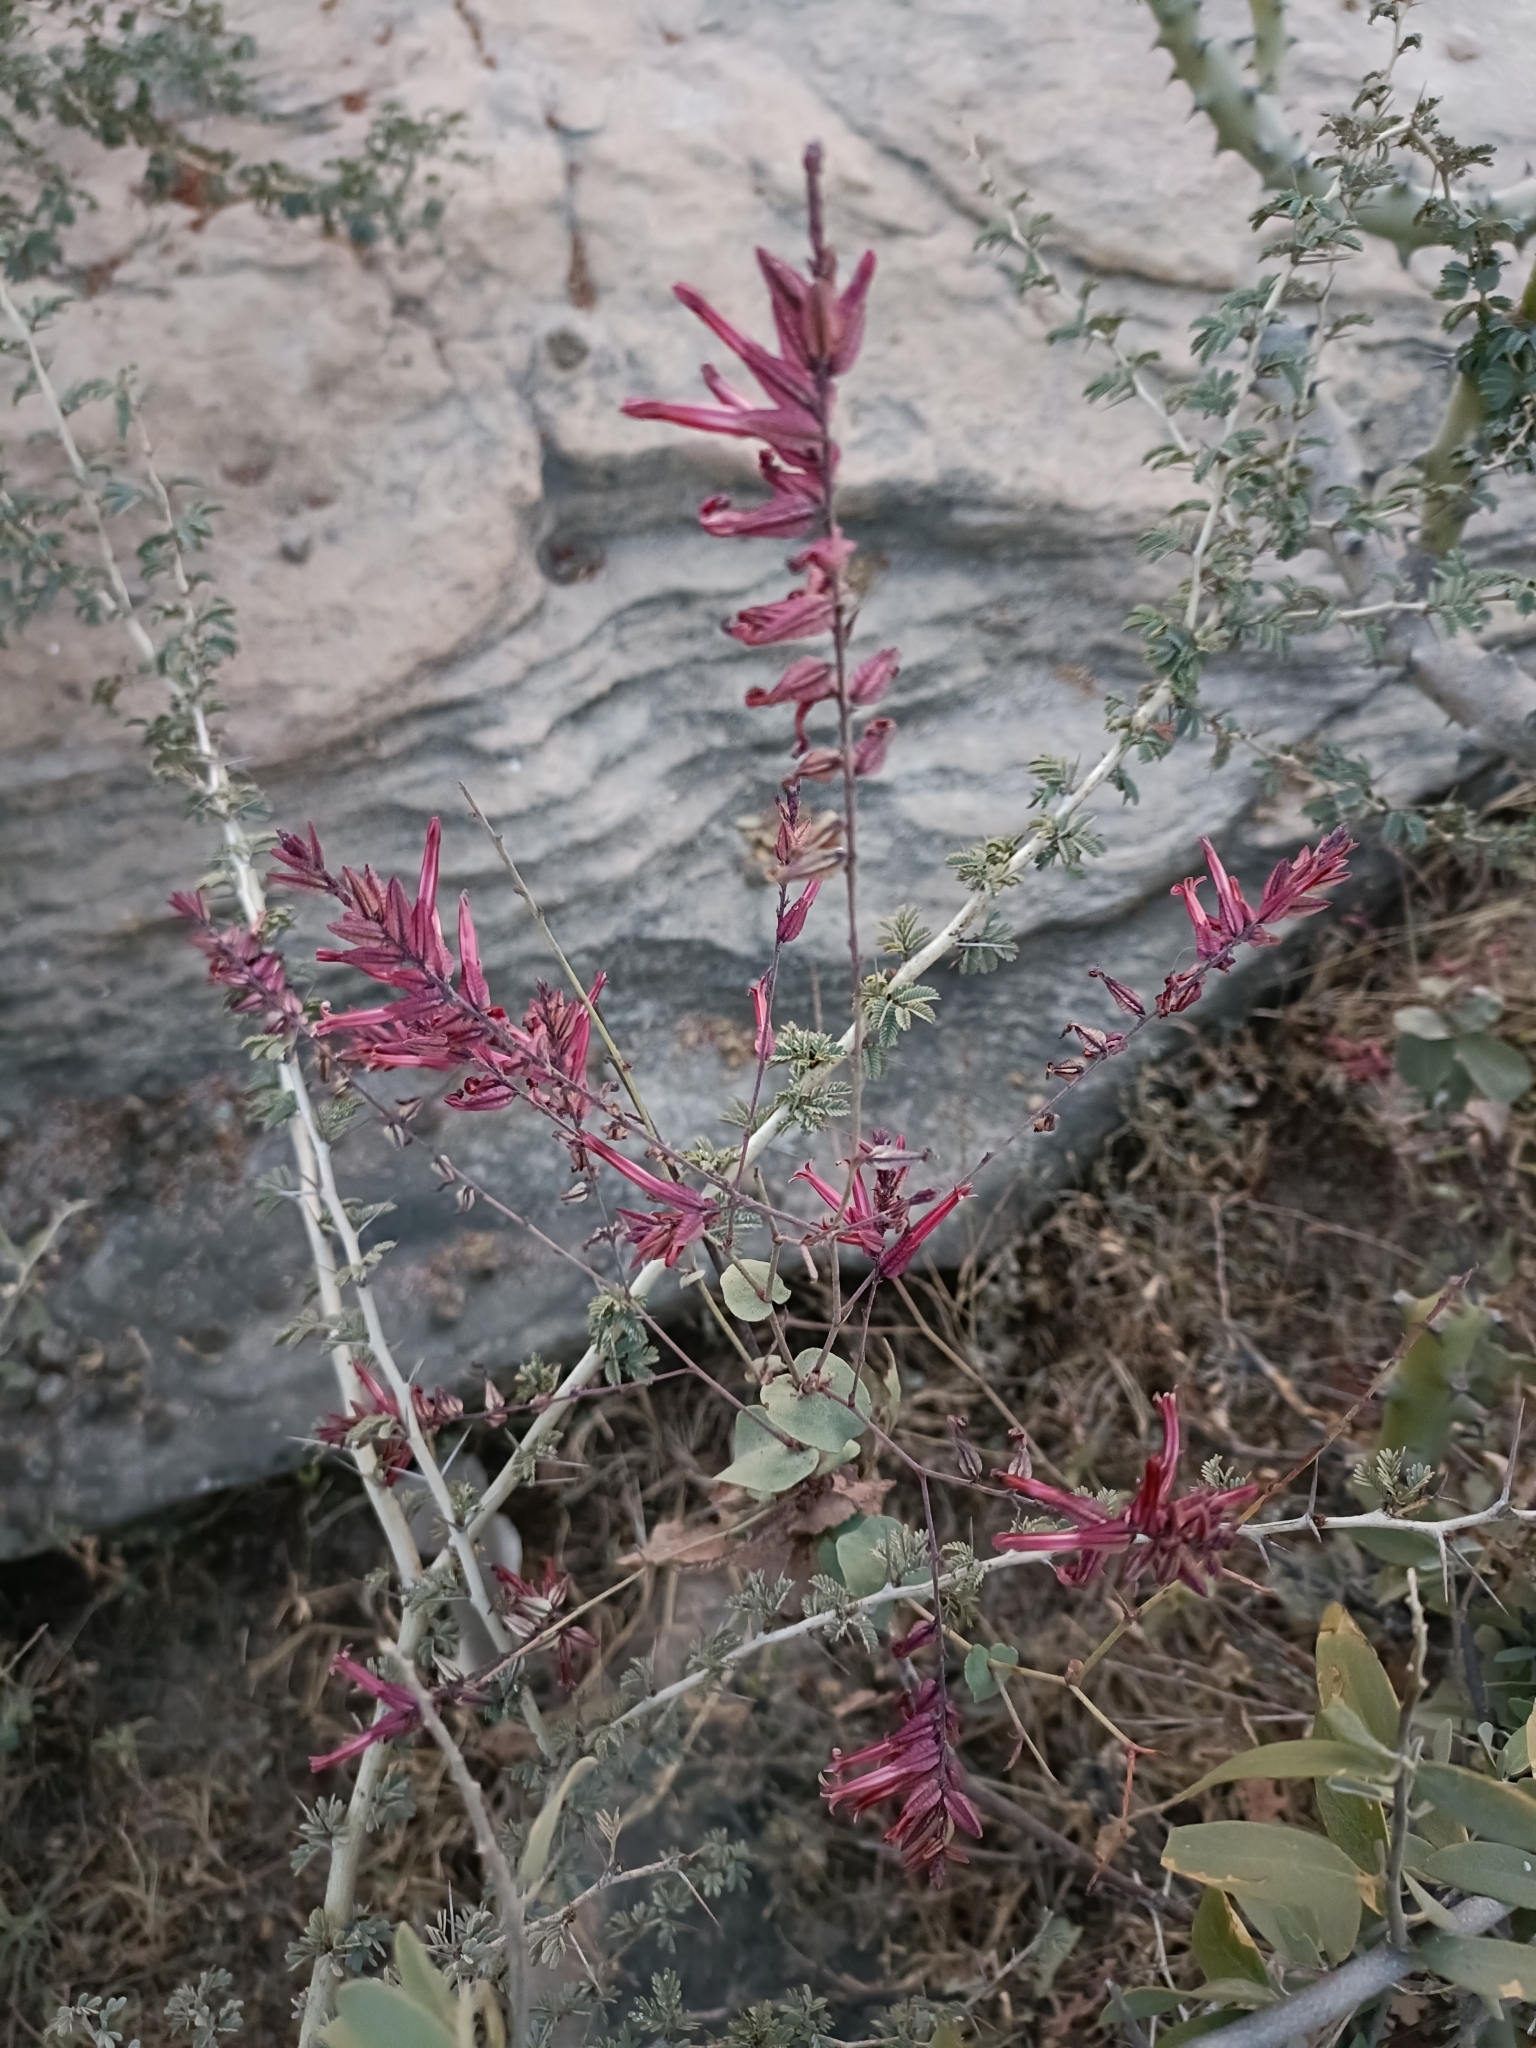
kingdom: Plantae
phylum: Tracheophyta
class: Magnoliopsida
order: Caryophyllales
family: Plumbaginaceae
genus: Dyerophytum
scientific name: Dyerophytum indicum
